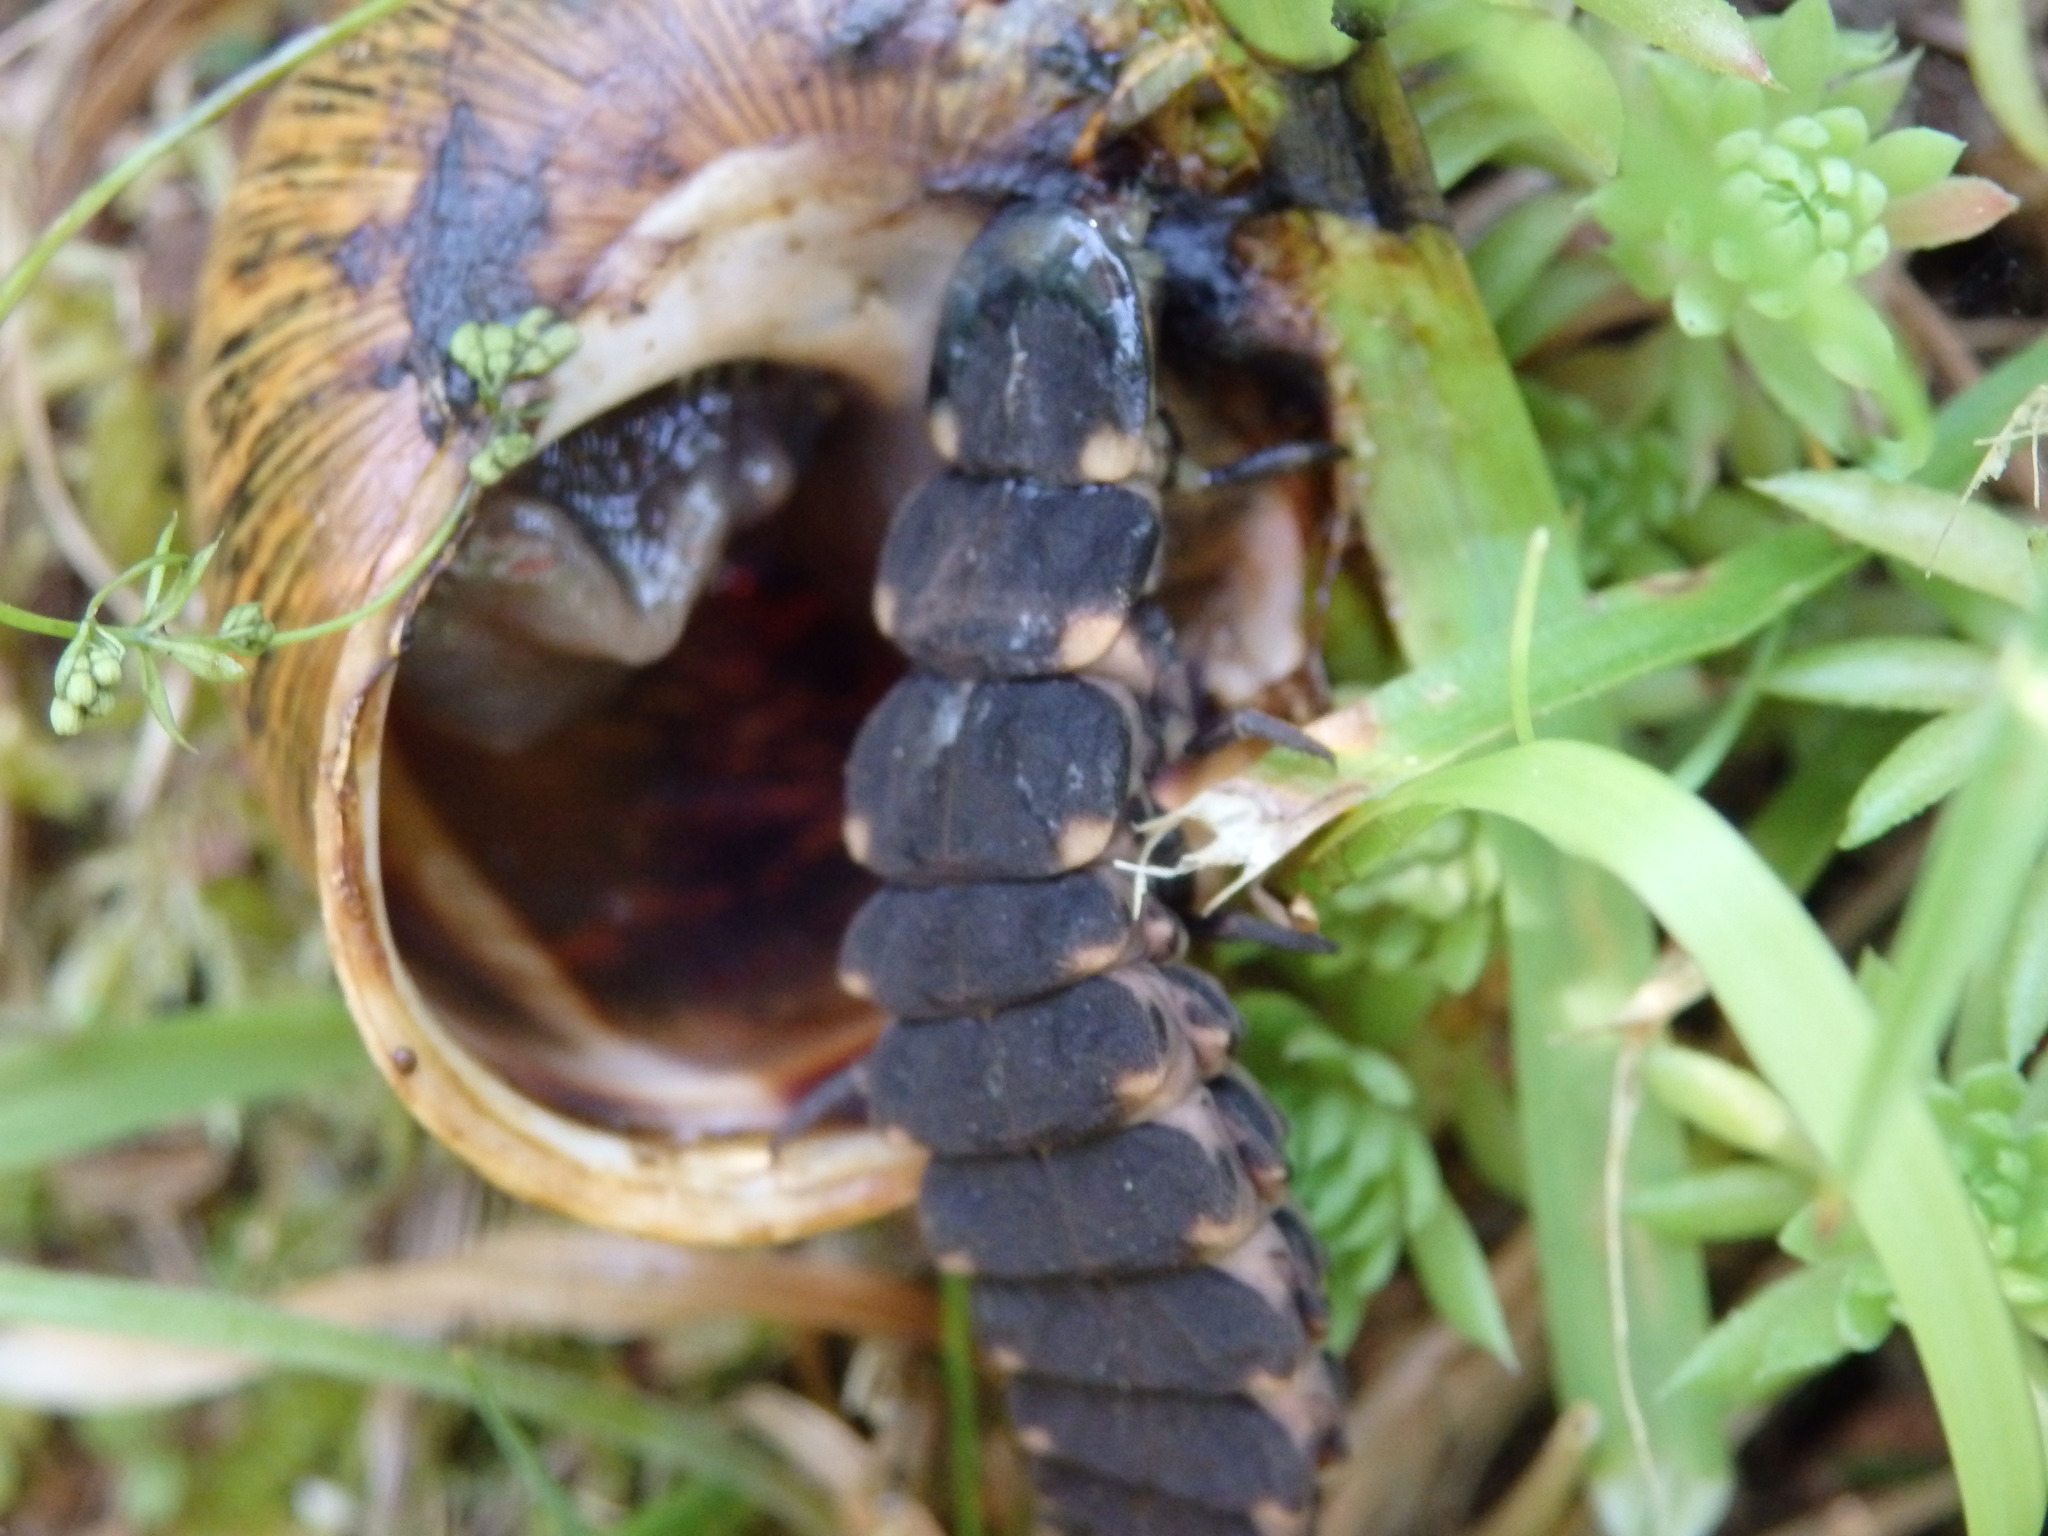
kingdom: Animalia
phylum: Arthropoda
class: Insecta
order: Coleoptera
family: Lampyridae
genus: Lampyris
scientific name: Lampyris noctiluca
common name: Glow-worm
